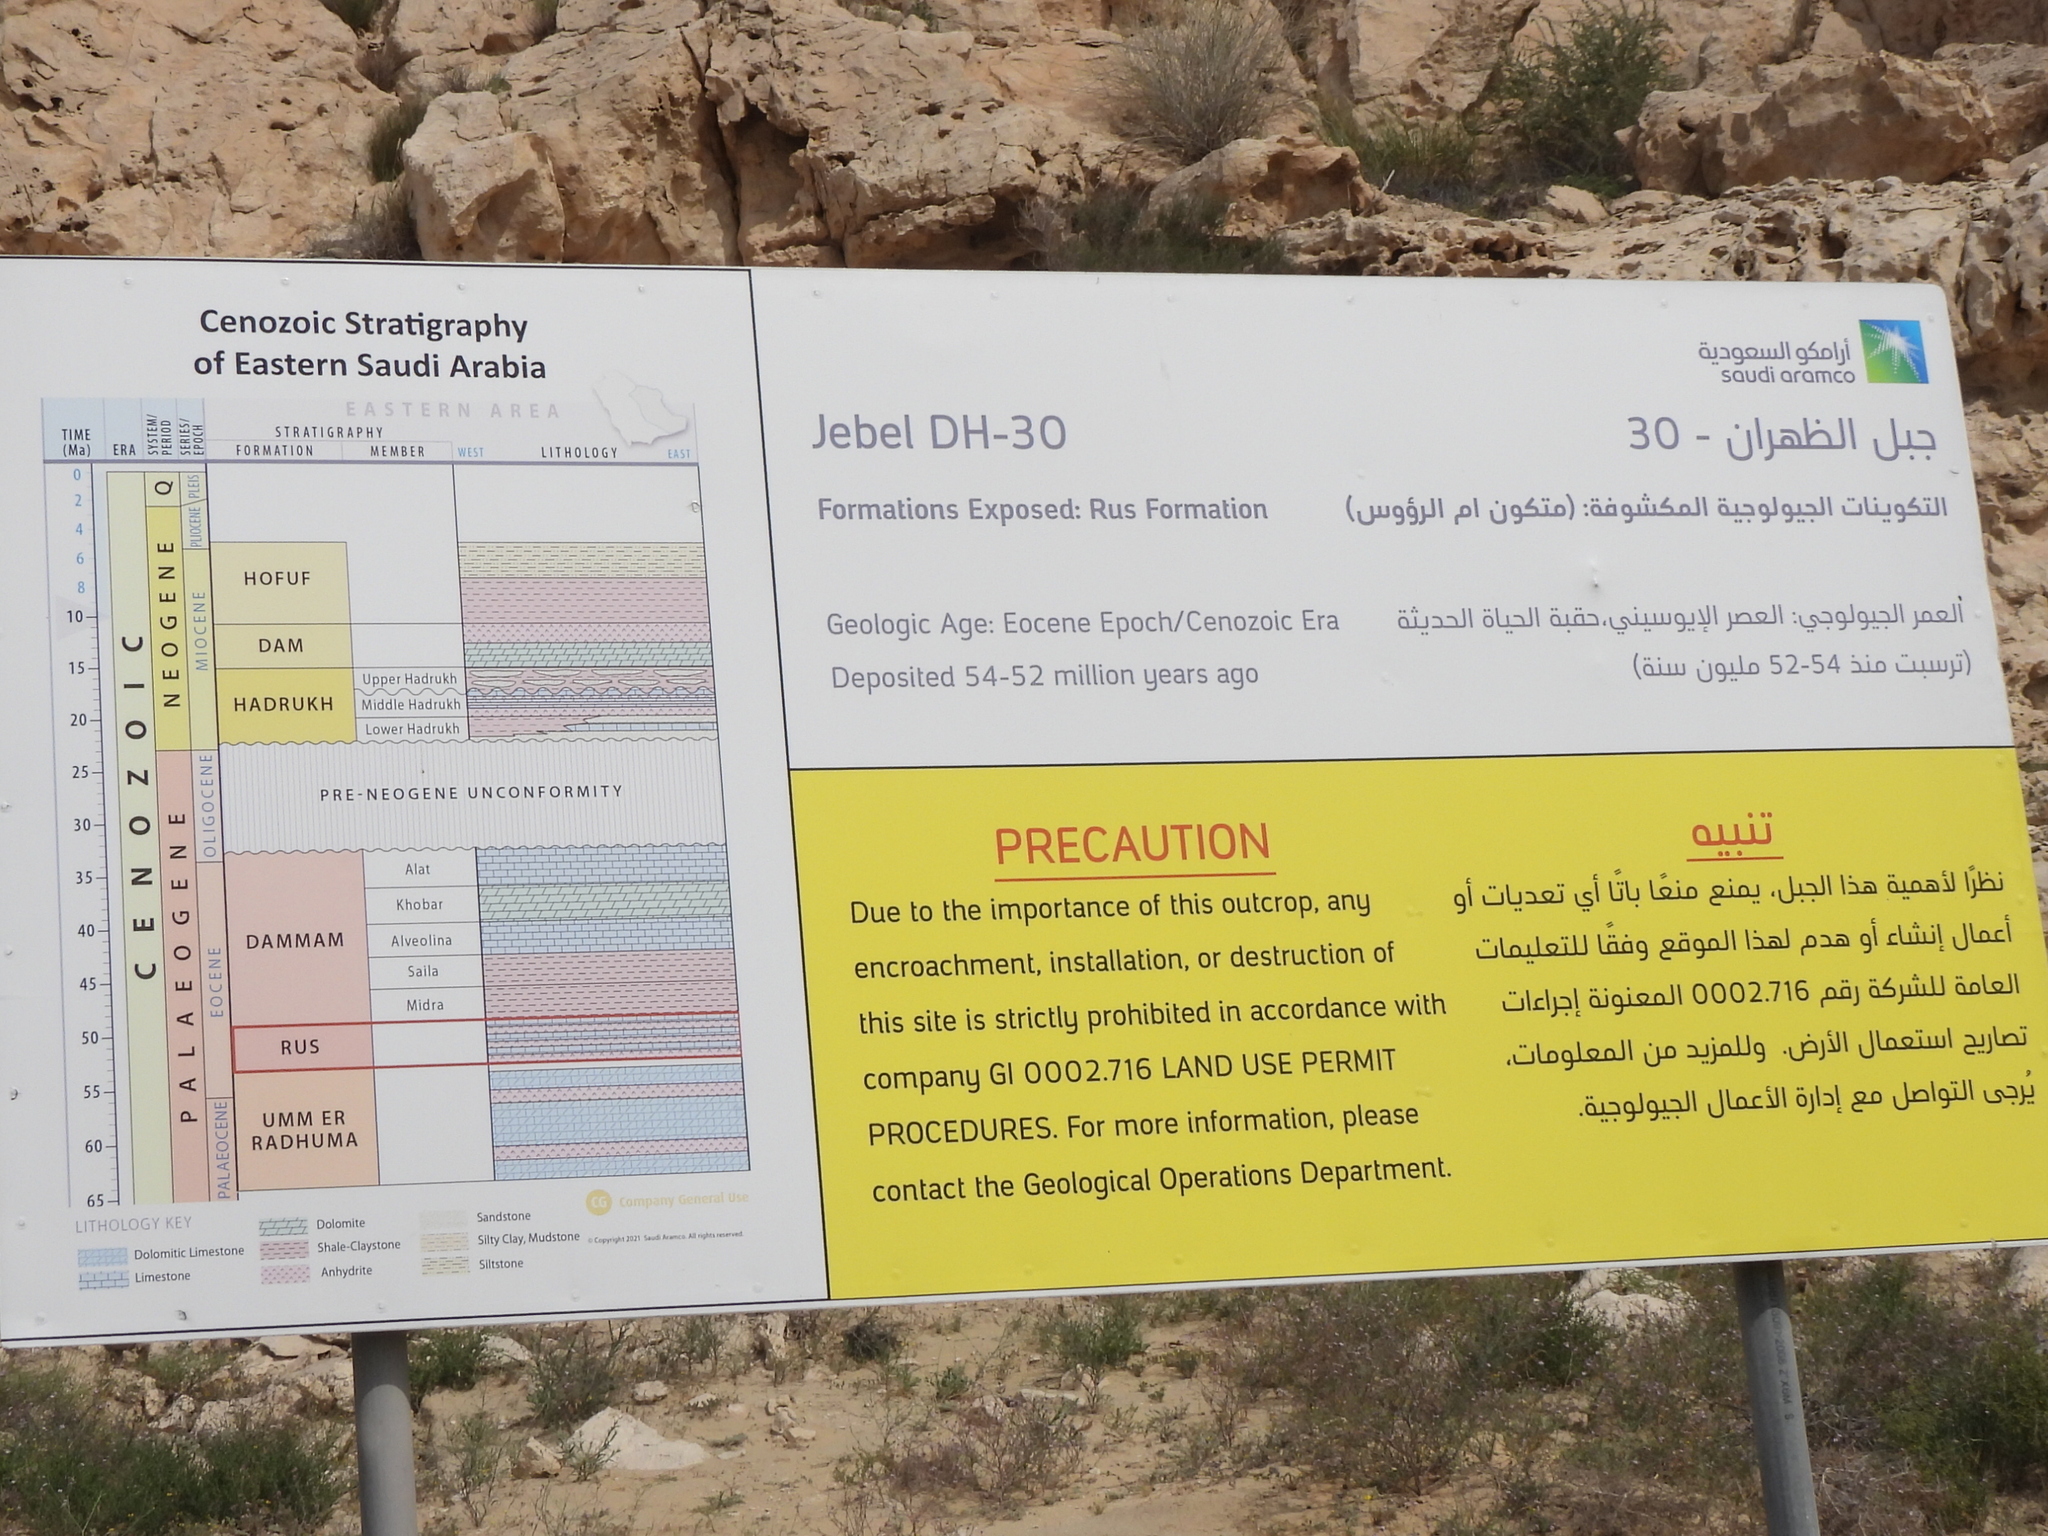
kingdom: Animalia
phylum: Chordata
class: Mammalia
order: Carnivora
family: Canidae
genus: Vulpes
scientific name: Vulpes vulpes
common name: Red fox
